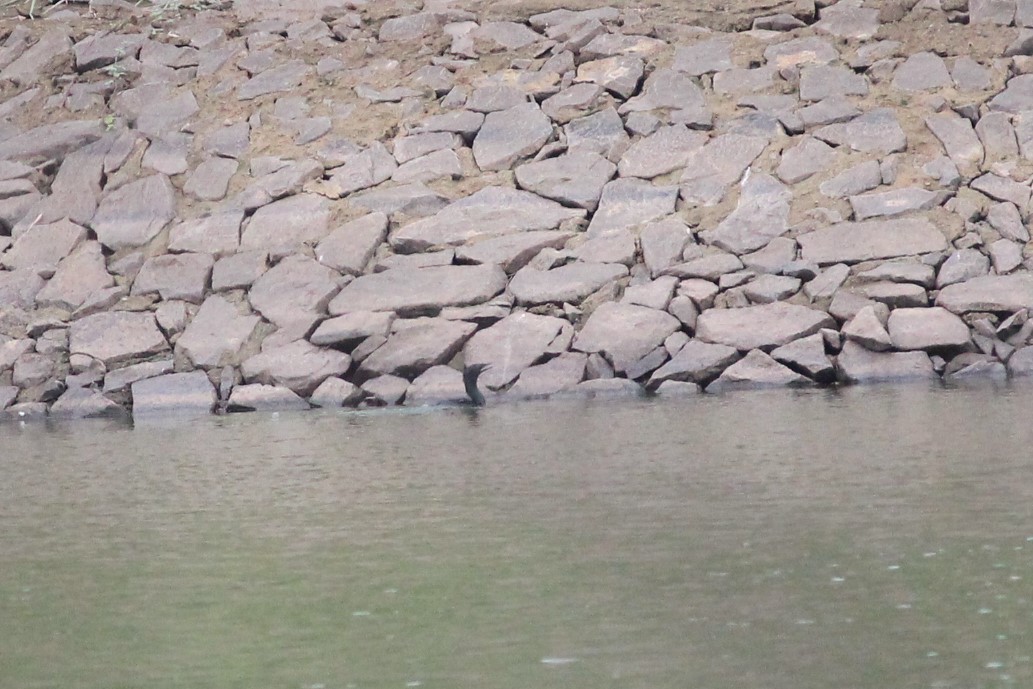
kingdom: Animalia
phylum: Chordata
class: Aves
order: Suliformes
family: Phalacrocoracidae
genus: Microcarbo
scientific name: Microcarbo niger
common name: Little cormorant
